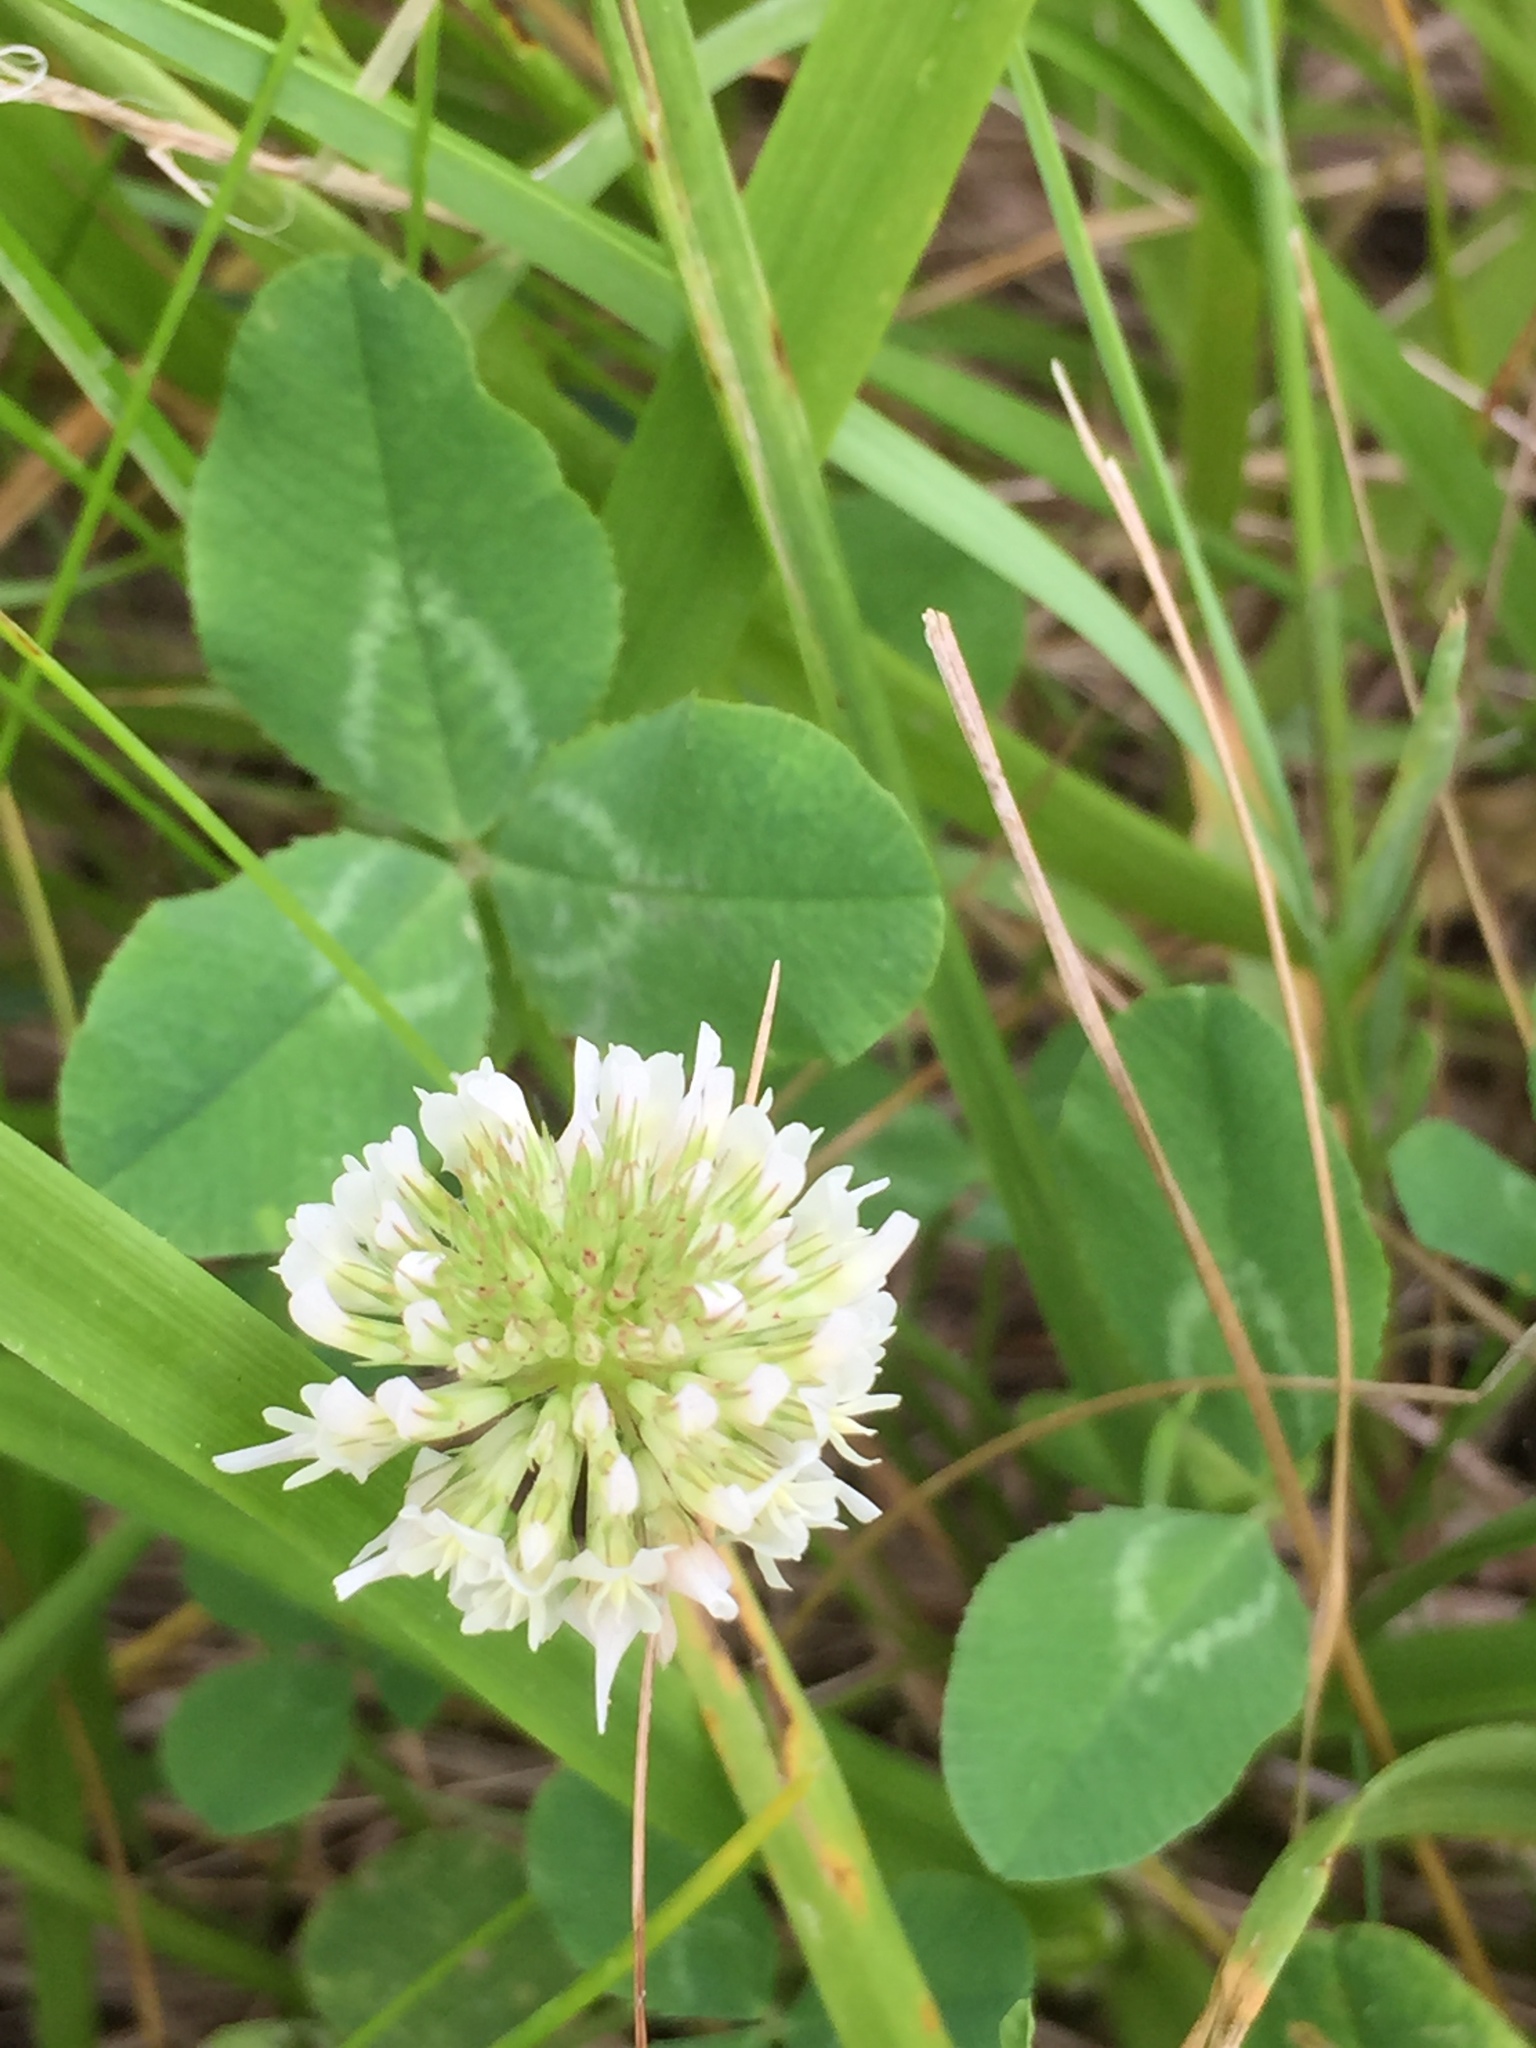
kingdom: Plantae
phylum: Tracheophyta
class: Magnoliopsida
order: Fabales
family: Fabaceae
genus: Trifolium
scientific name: Trifolium repens
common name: White clover
